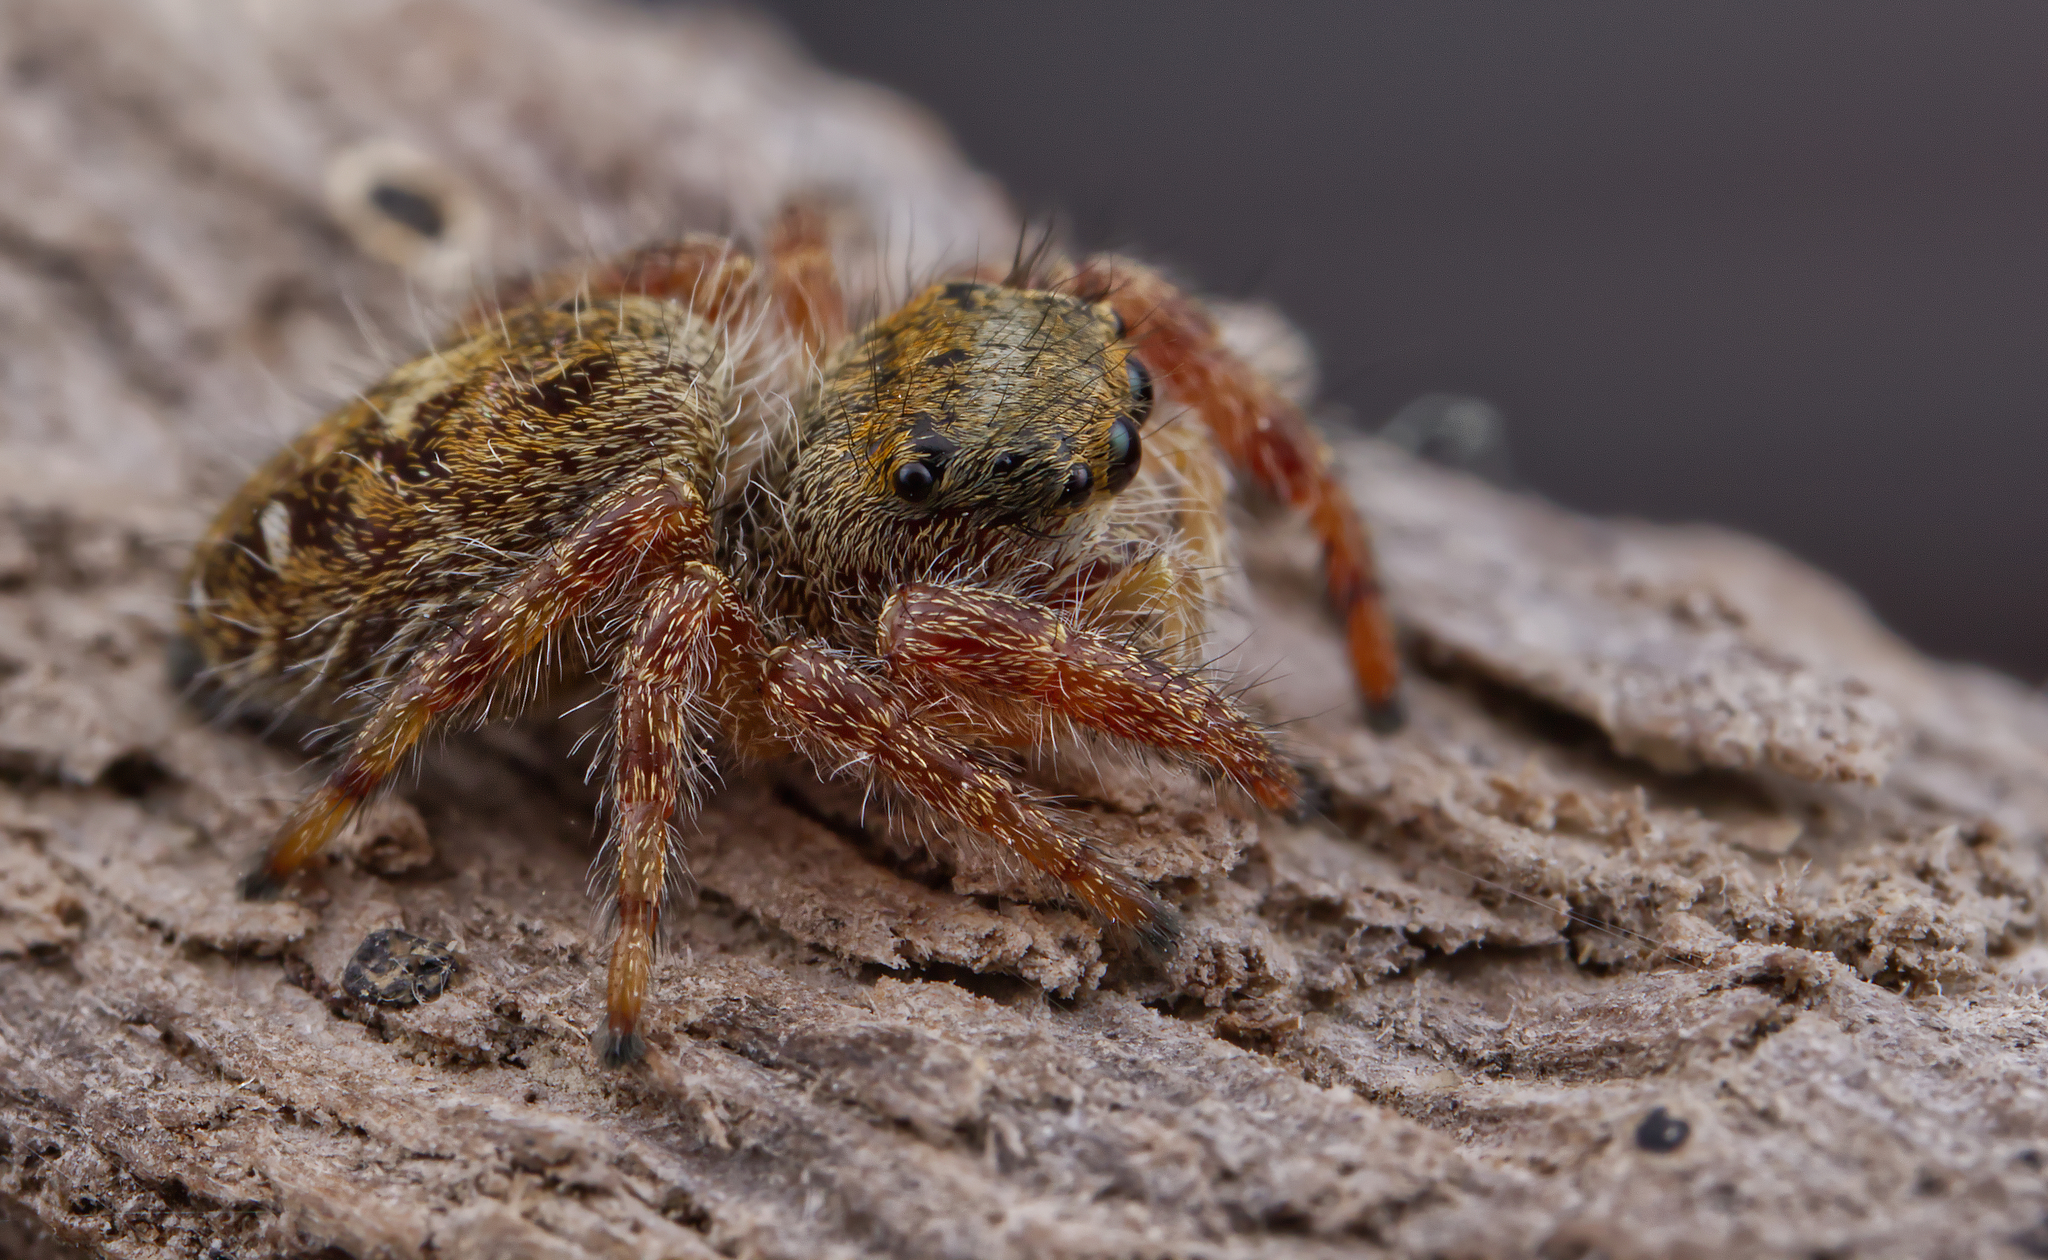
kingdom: Animalia
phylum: Arthropoda
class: Arachnida
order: Araneae
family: Salticidae
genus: Phidippus
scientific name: Phidippus princeps
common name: Grayish jumping spider
